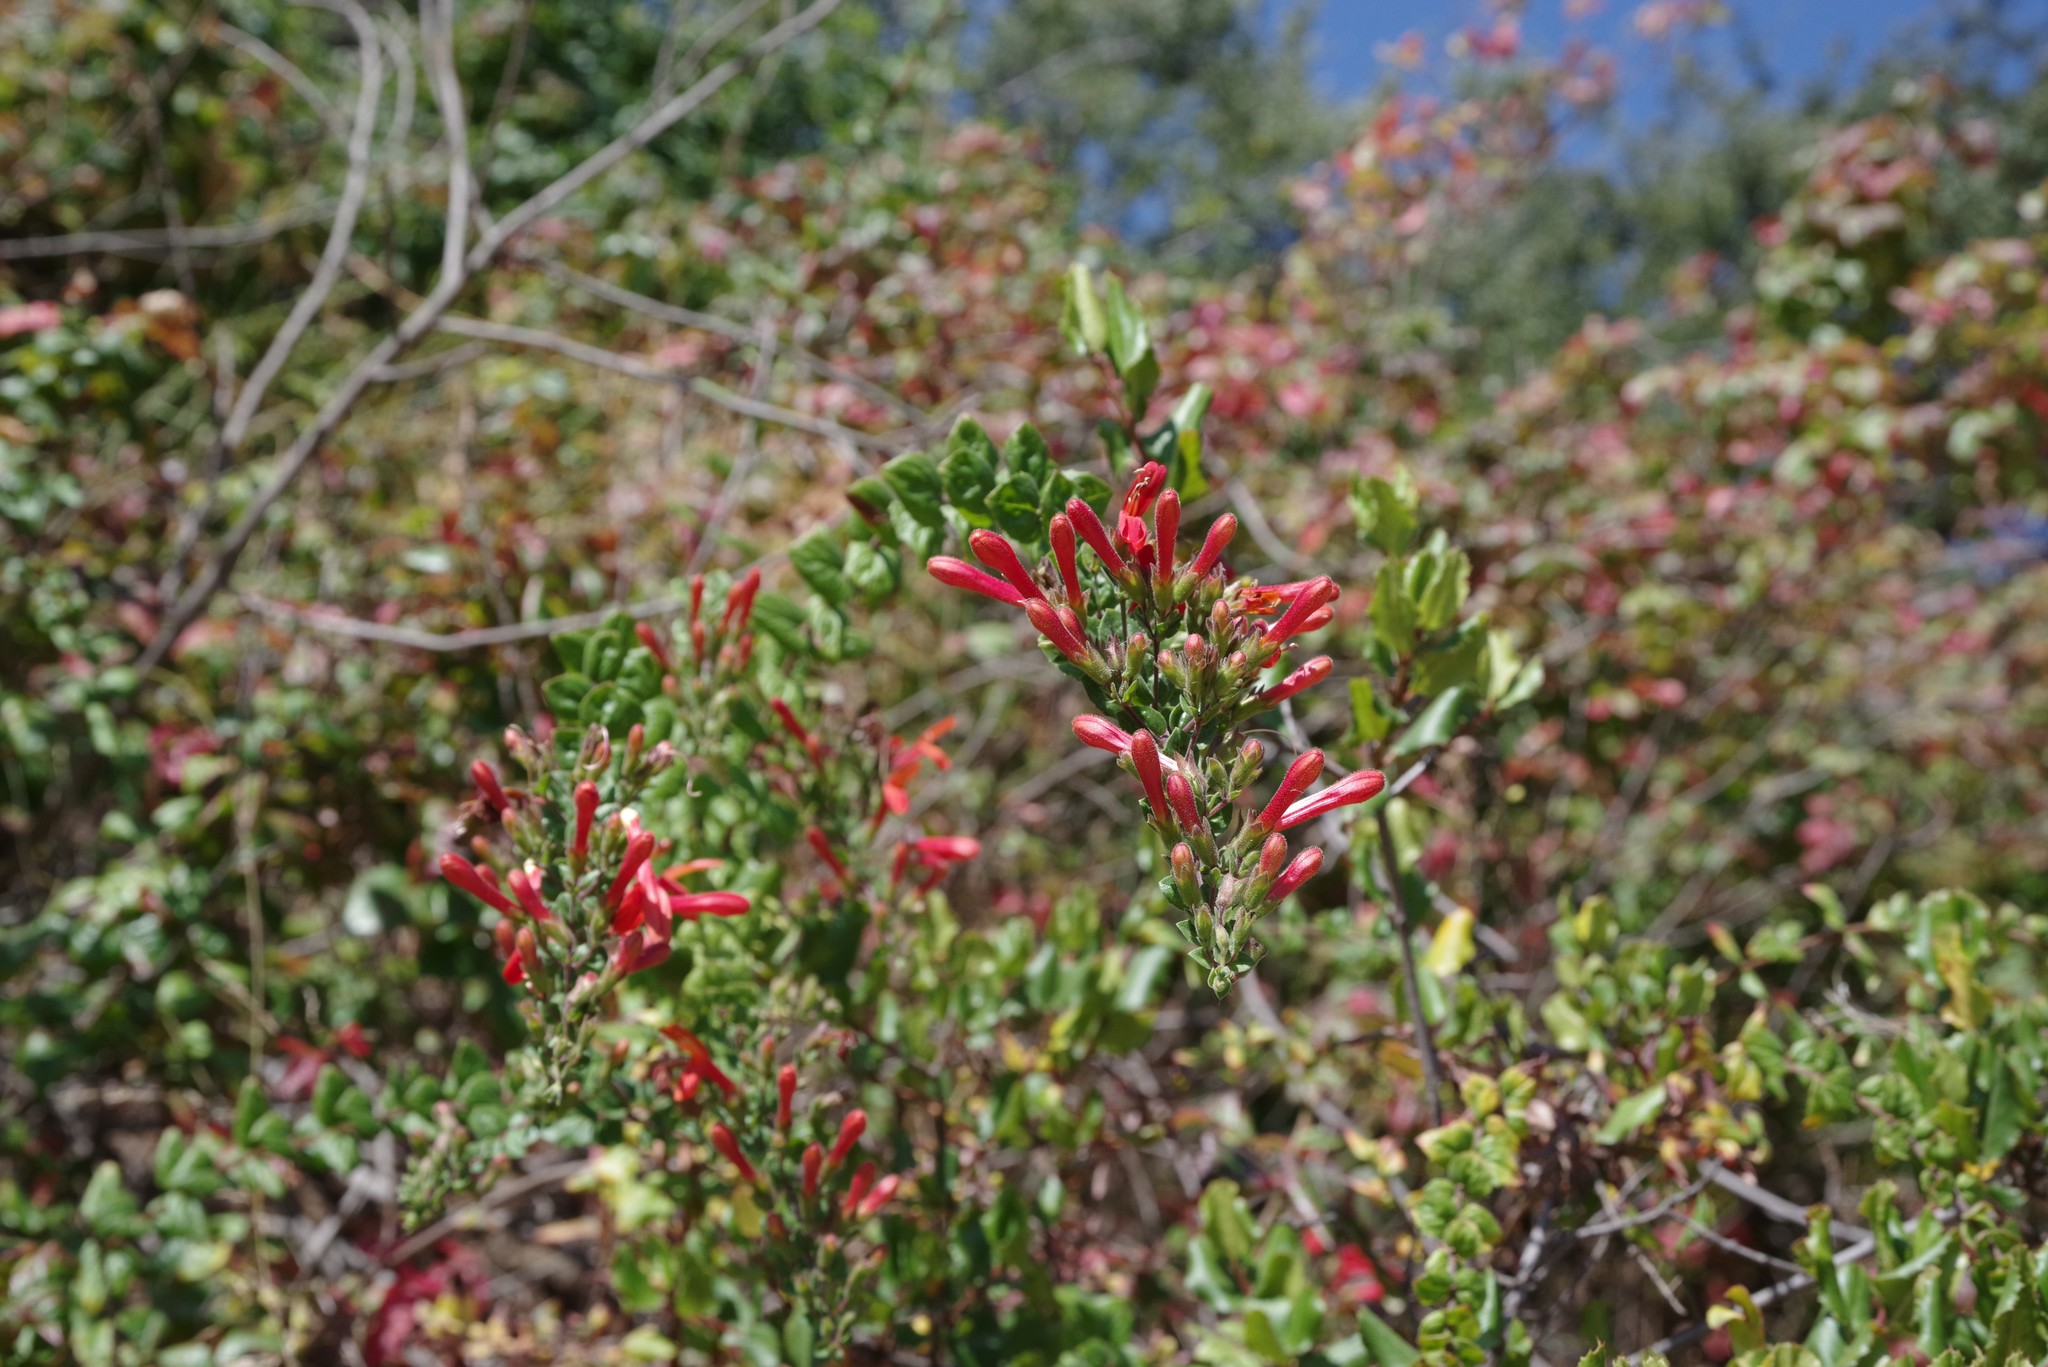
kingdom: Plantae
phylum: Tracheophyta
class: Magnoliopsida
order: Lamiales
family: Plantaginaceae
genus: Keckiella
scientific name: Keckiella cordifolia
